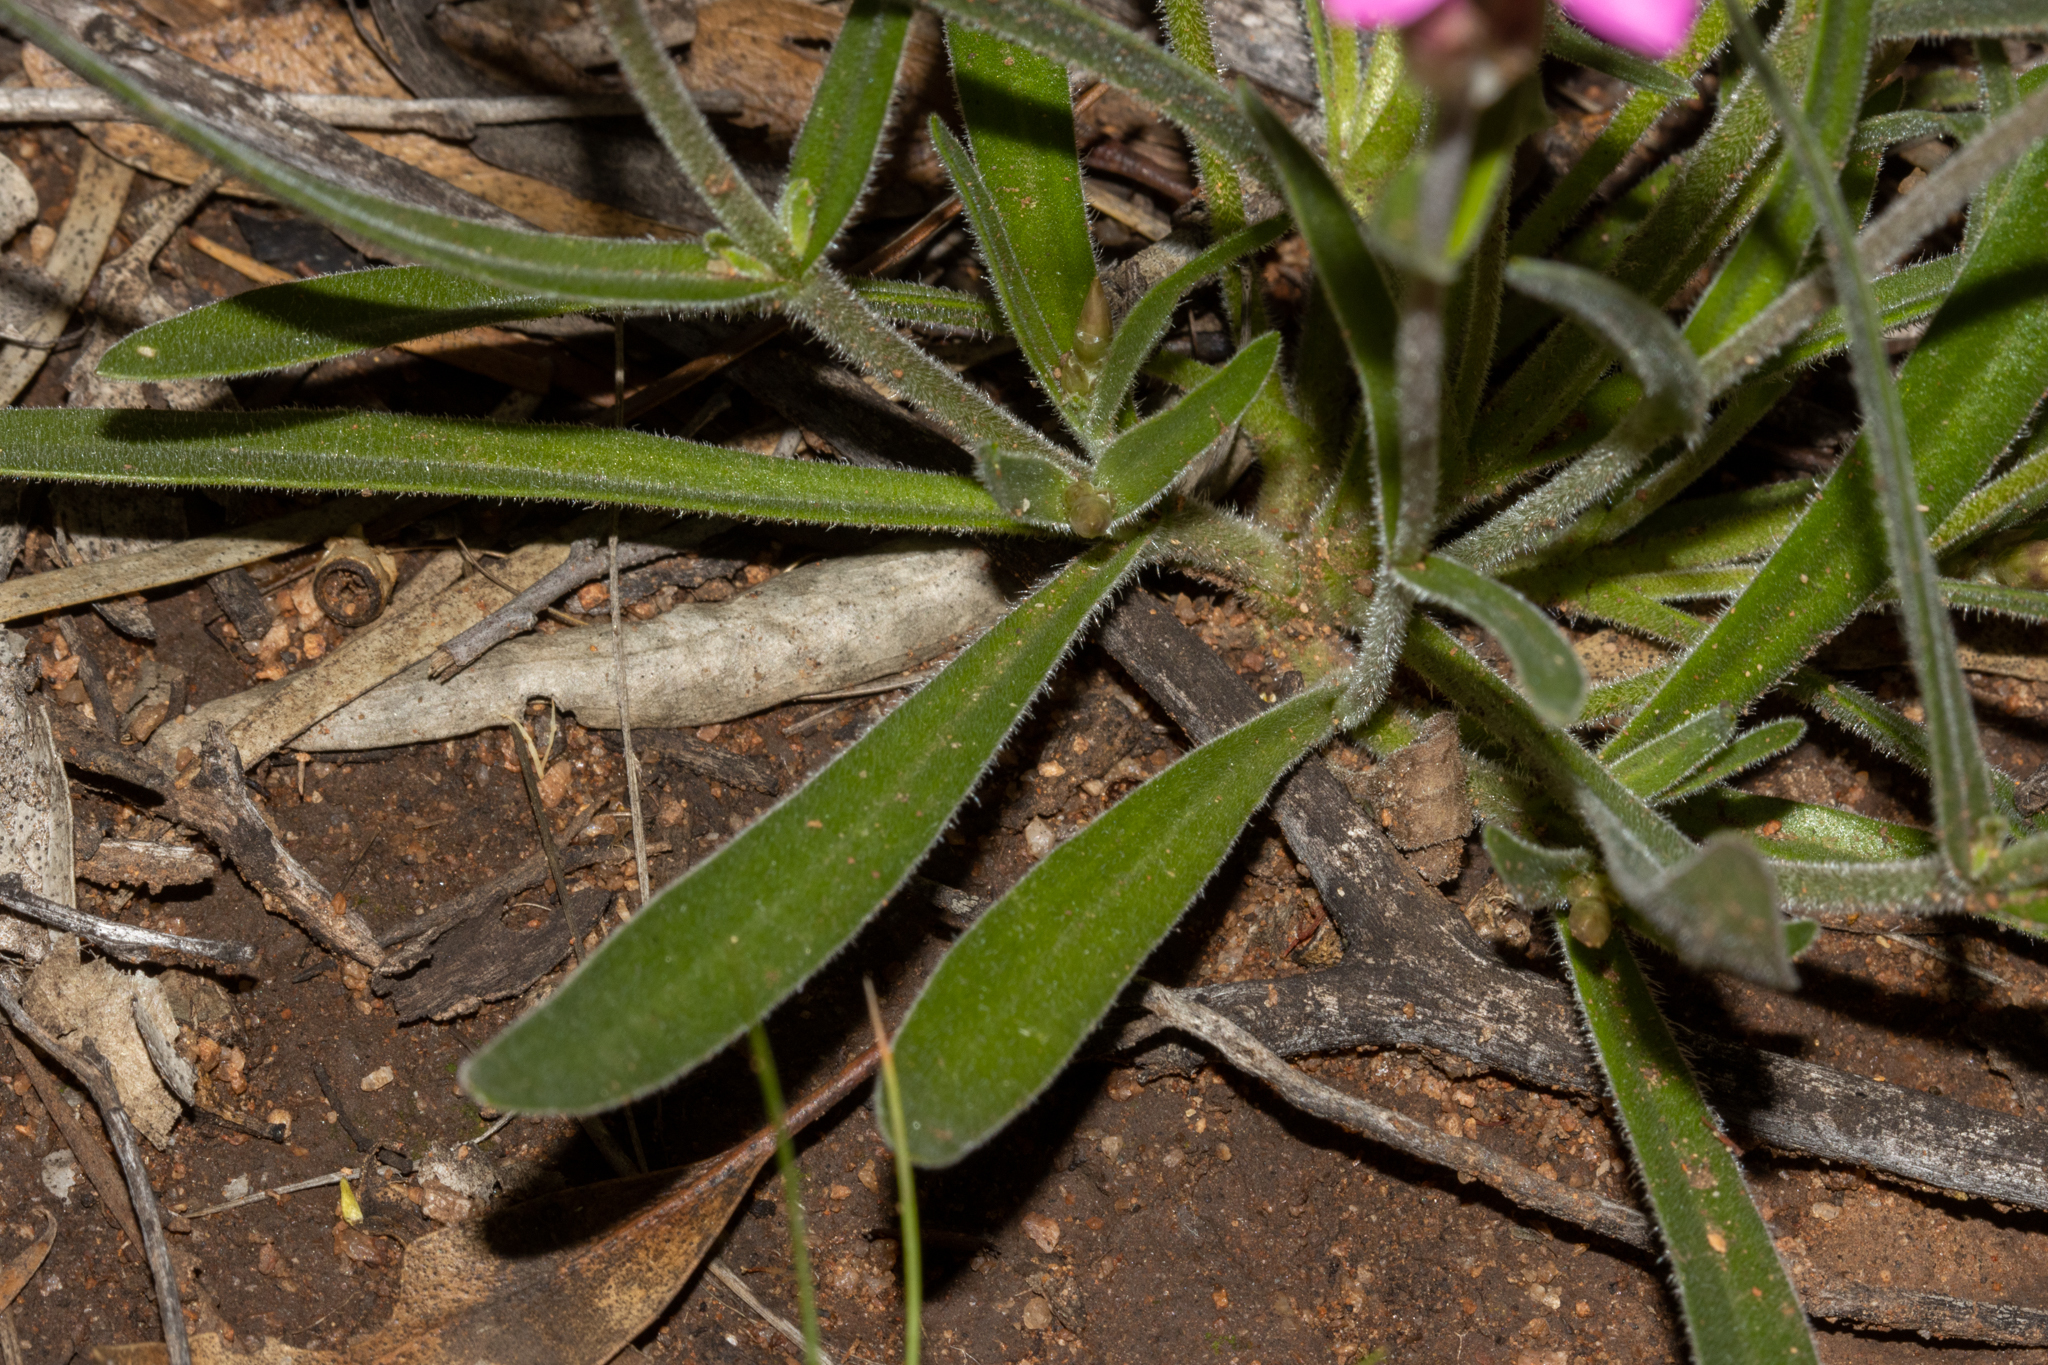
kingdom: Plantae
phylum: Tracheophyta
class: Magnoliopsida
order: Asterales
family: Asteraceae
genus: Schoenia
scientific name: Schoenia cassiniana
